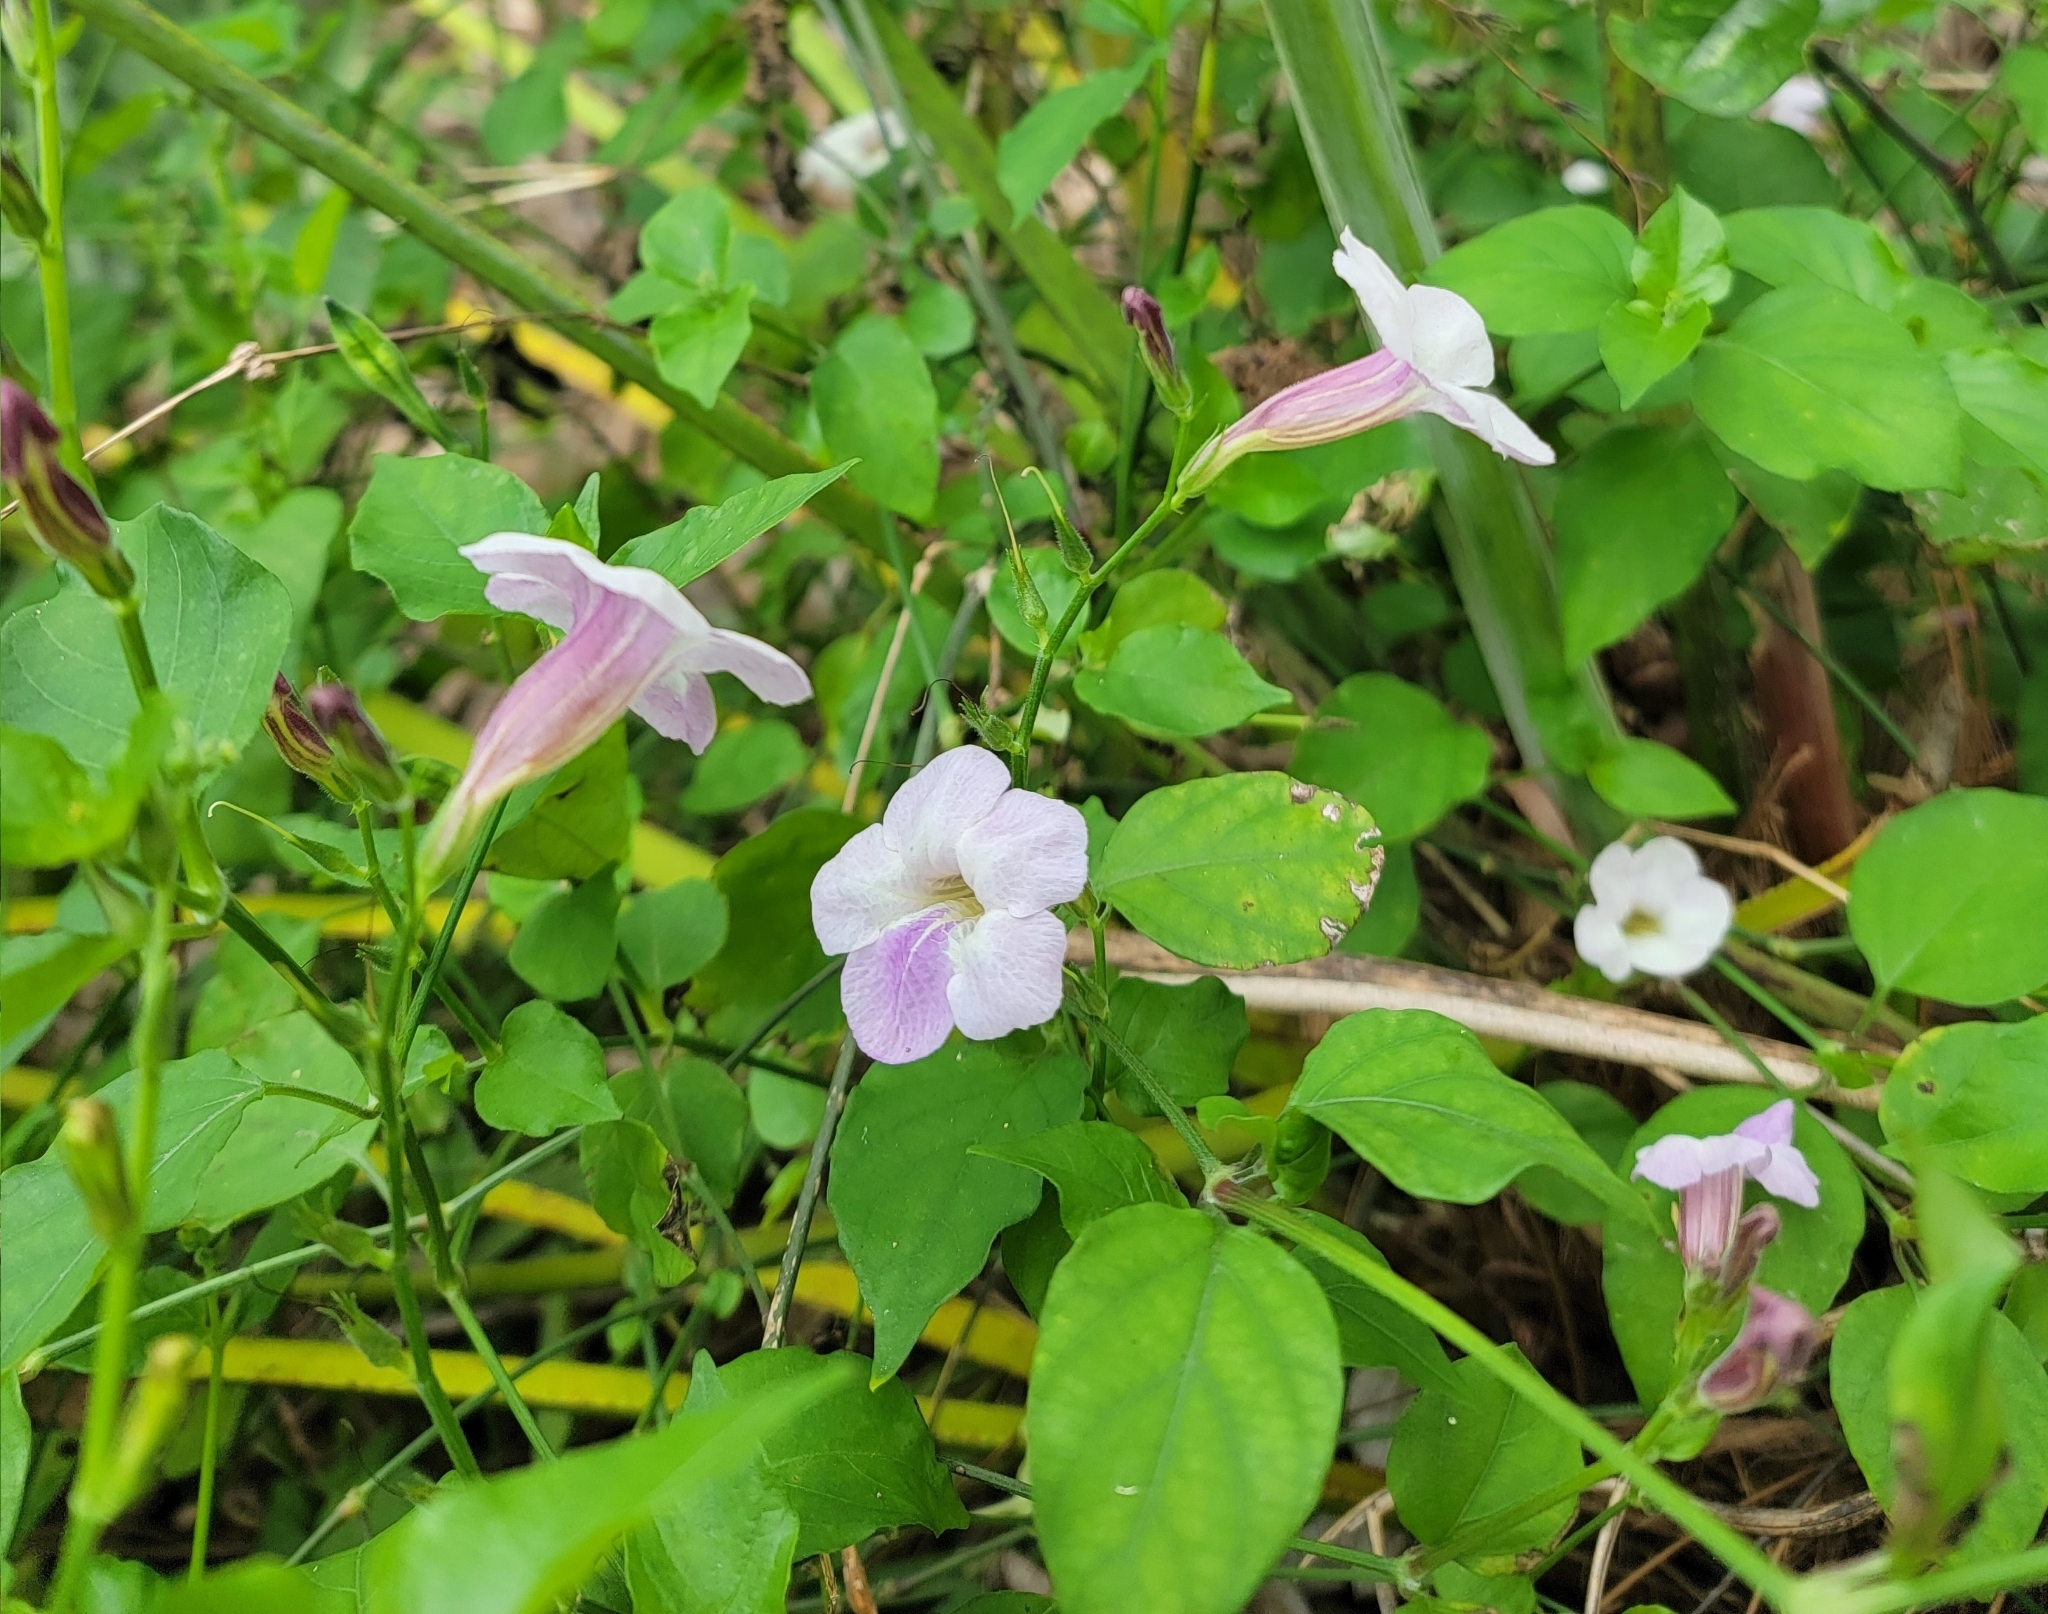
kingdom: Plantae
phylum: Tracheophyta
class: Magnoliopsida
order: Lamiales
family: Acanthaceae
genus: Asystasia
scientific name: Asystasia gangetica
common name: Chinese violet
